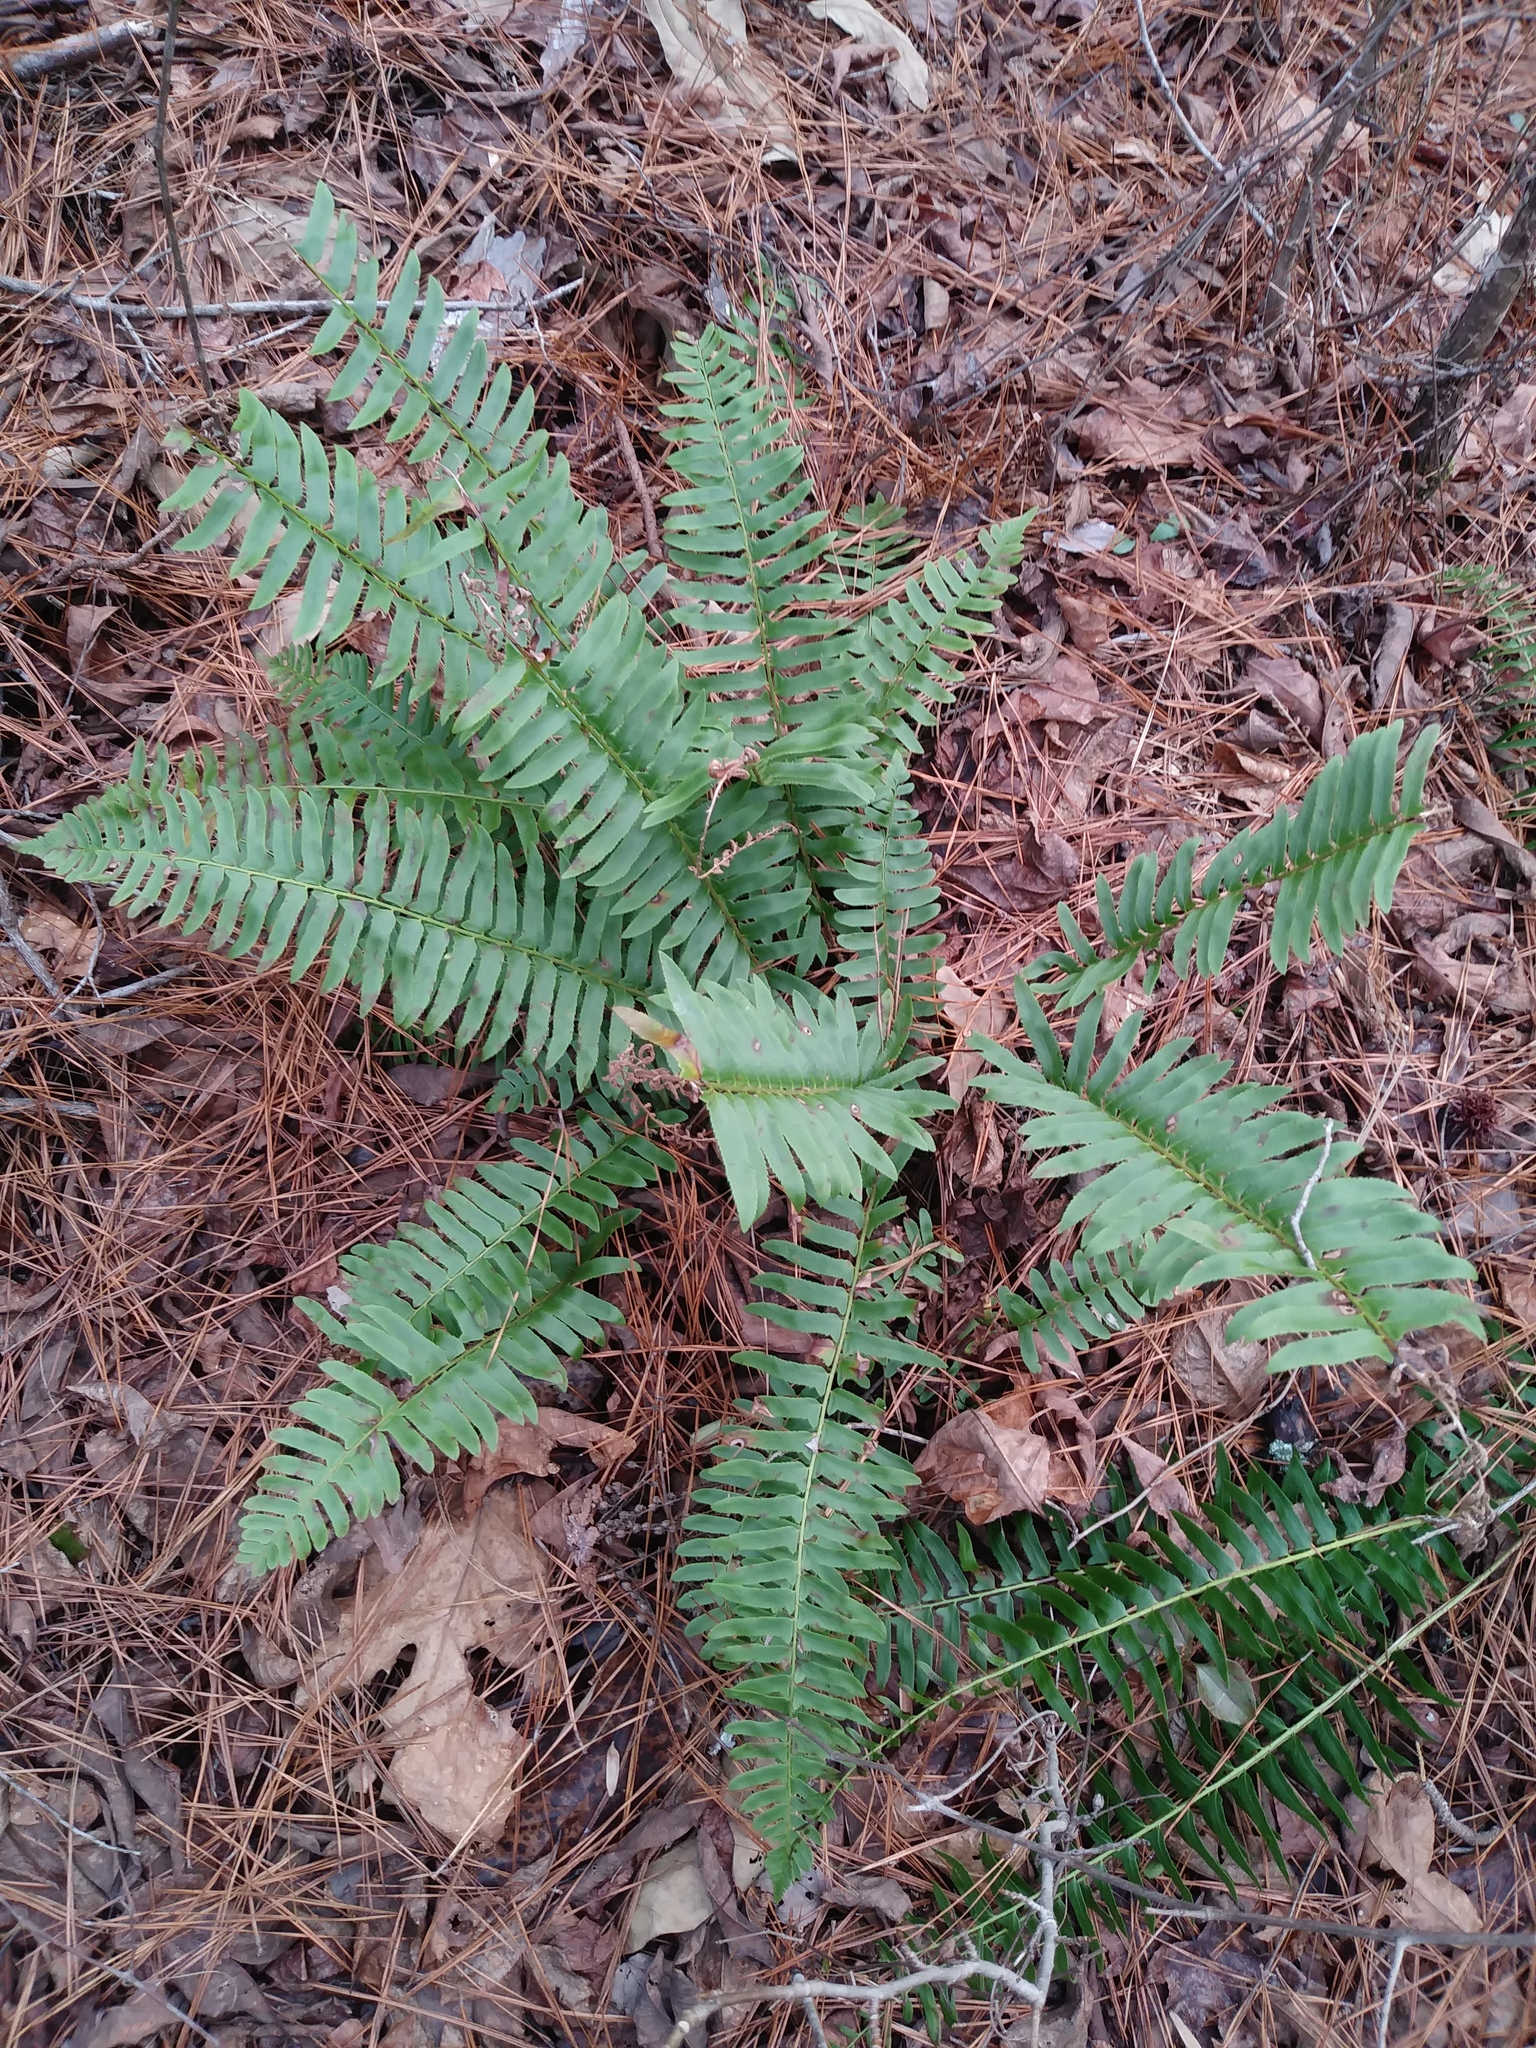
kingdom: Plantae
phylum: Tracheophyta
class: Polypodiopsida
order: Polypodiales
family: Dryopteridaceae
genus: Polystichum
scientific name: Polystichum acrostichoides
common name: Christmas fern
